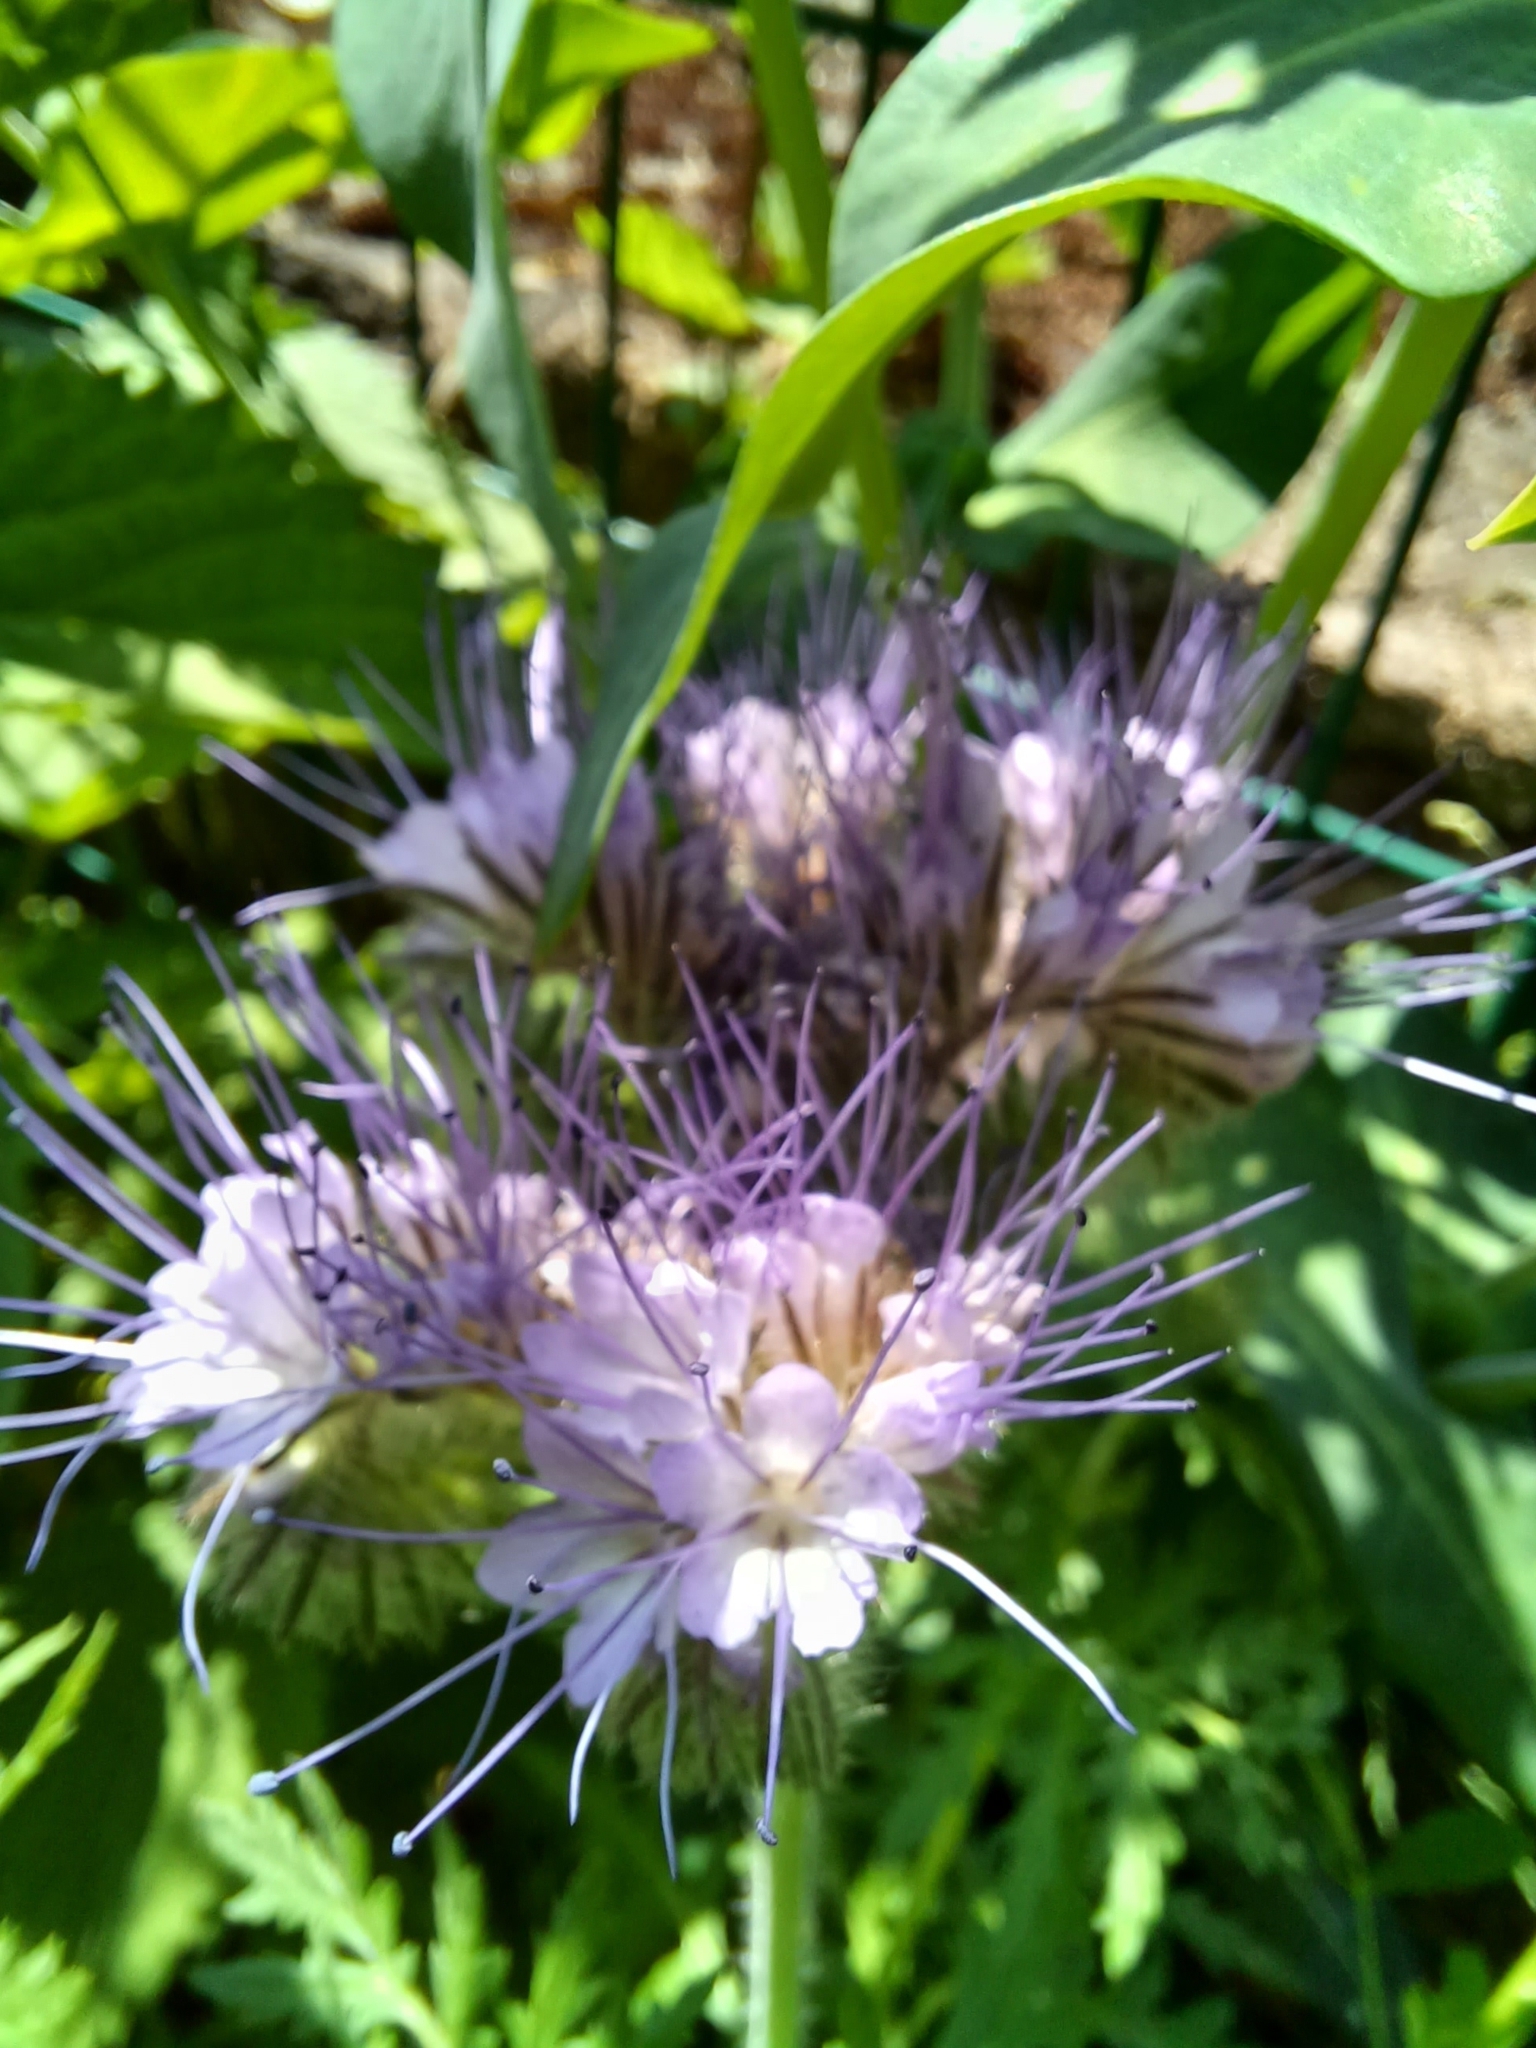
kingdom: Plantae
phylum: Tracheophyta
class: Magnoliopsida
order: Boraginales
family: Hydrophyllaceae
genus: Phacelia
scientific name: Phacelia tanacetifolia
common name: Phacelia
